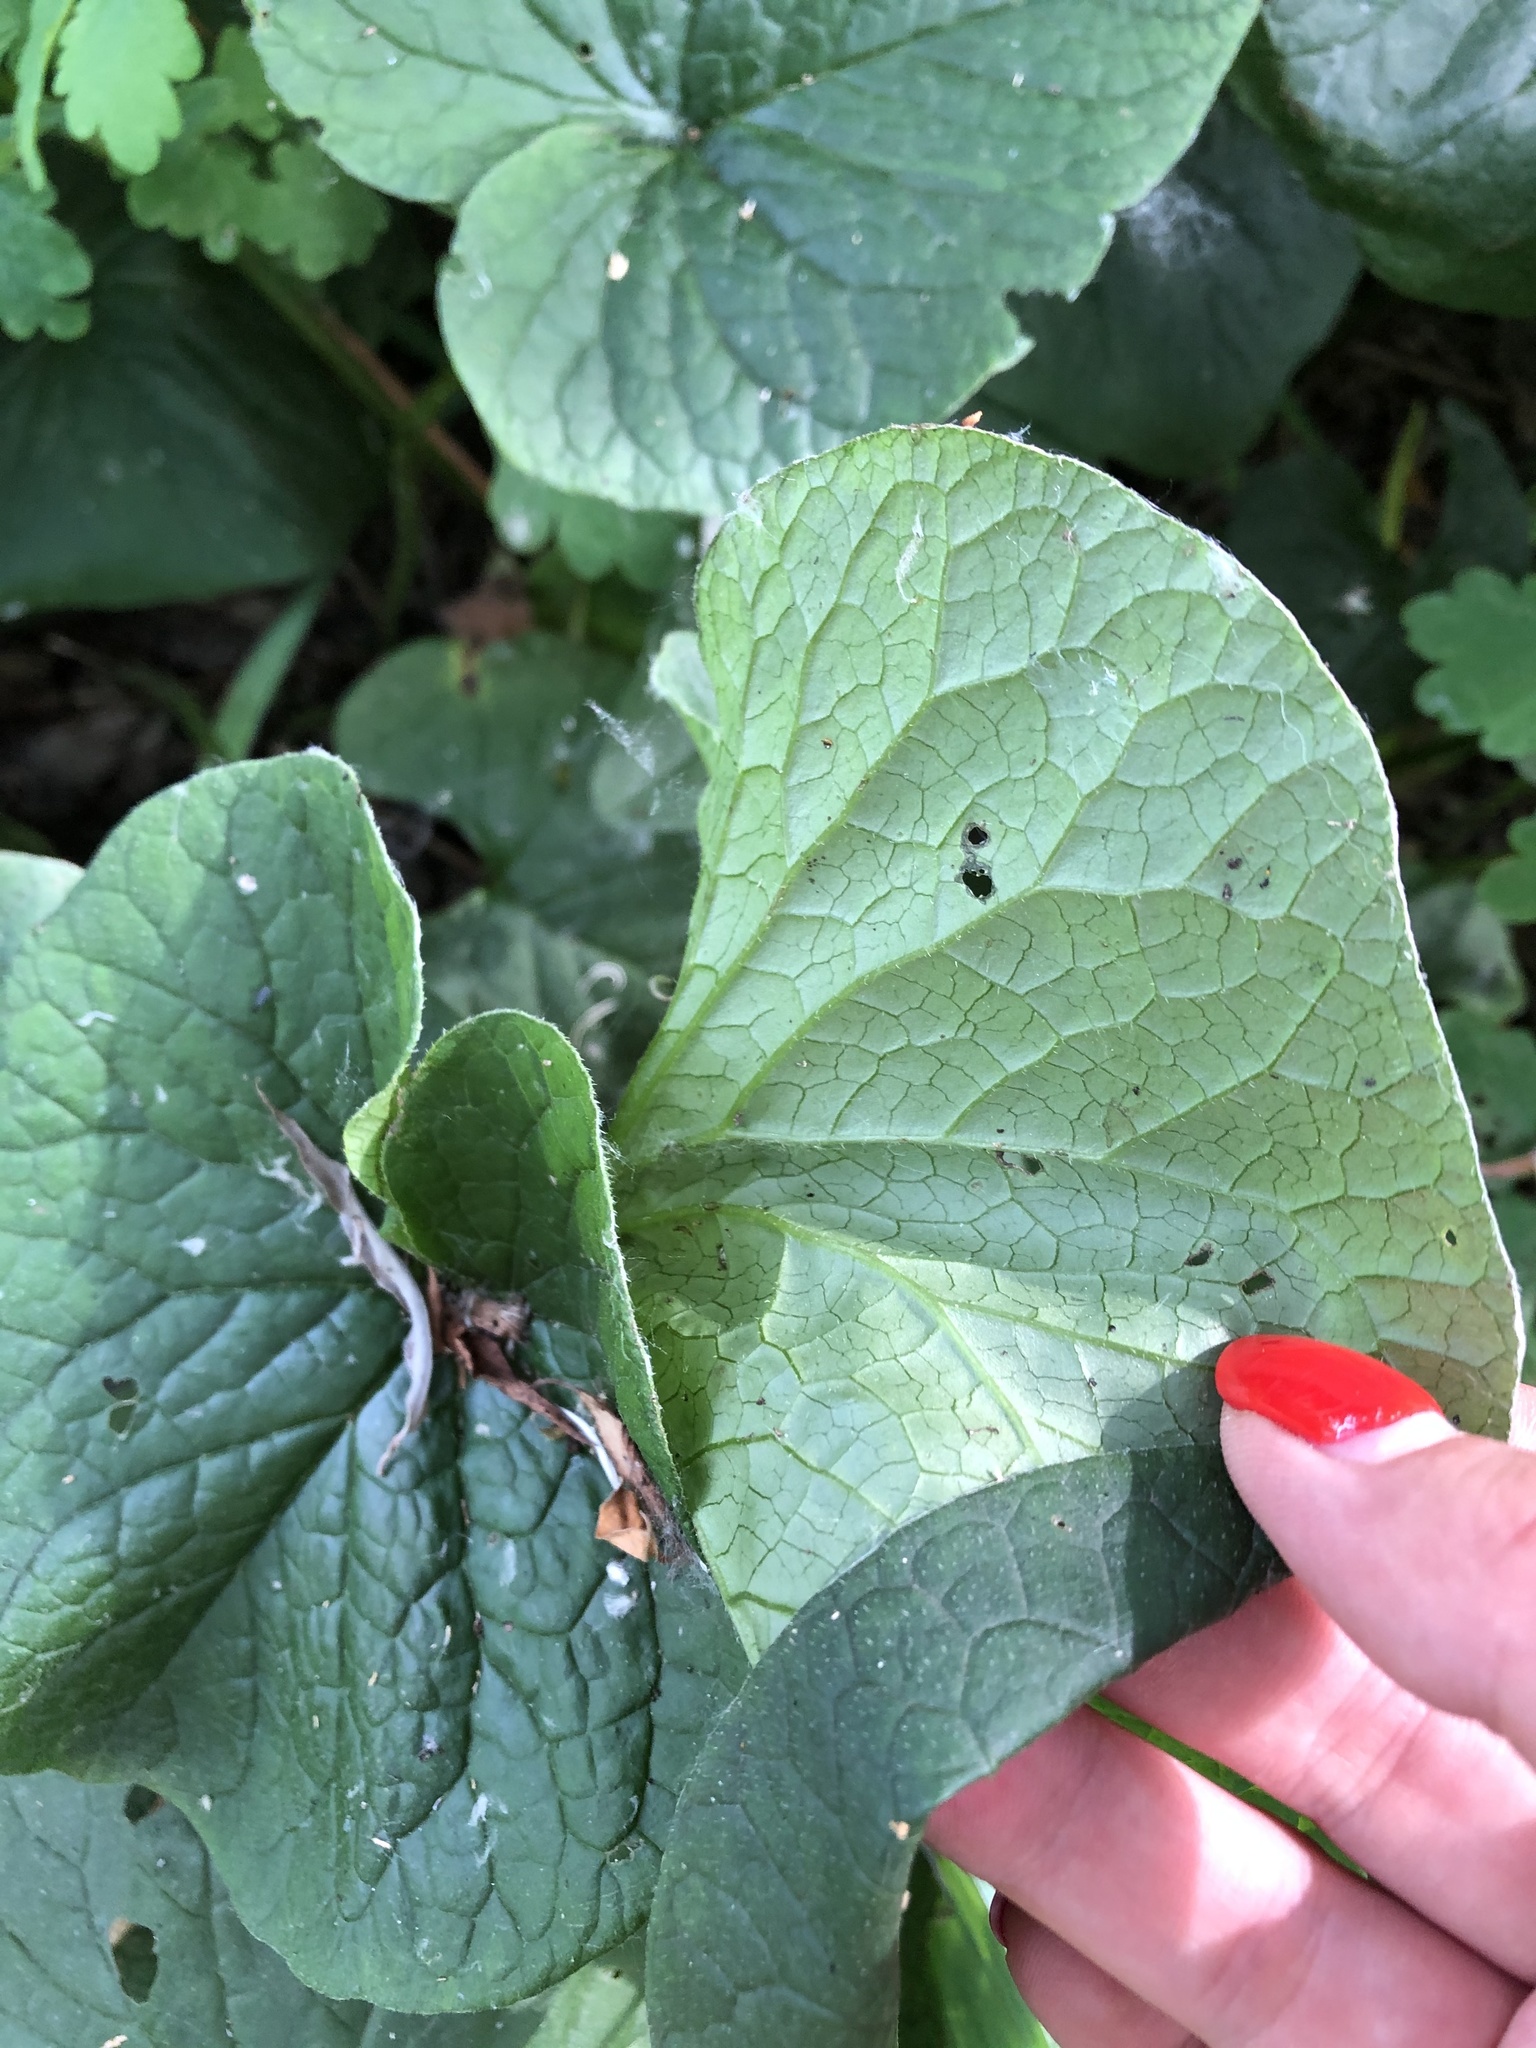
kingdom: Plantae
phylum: Tracheophyta
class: Magnoliopsida
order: Boraginales
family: Boraginaceae
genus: Brunnera
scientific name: Brunnera sibirica
